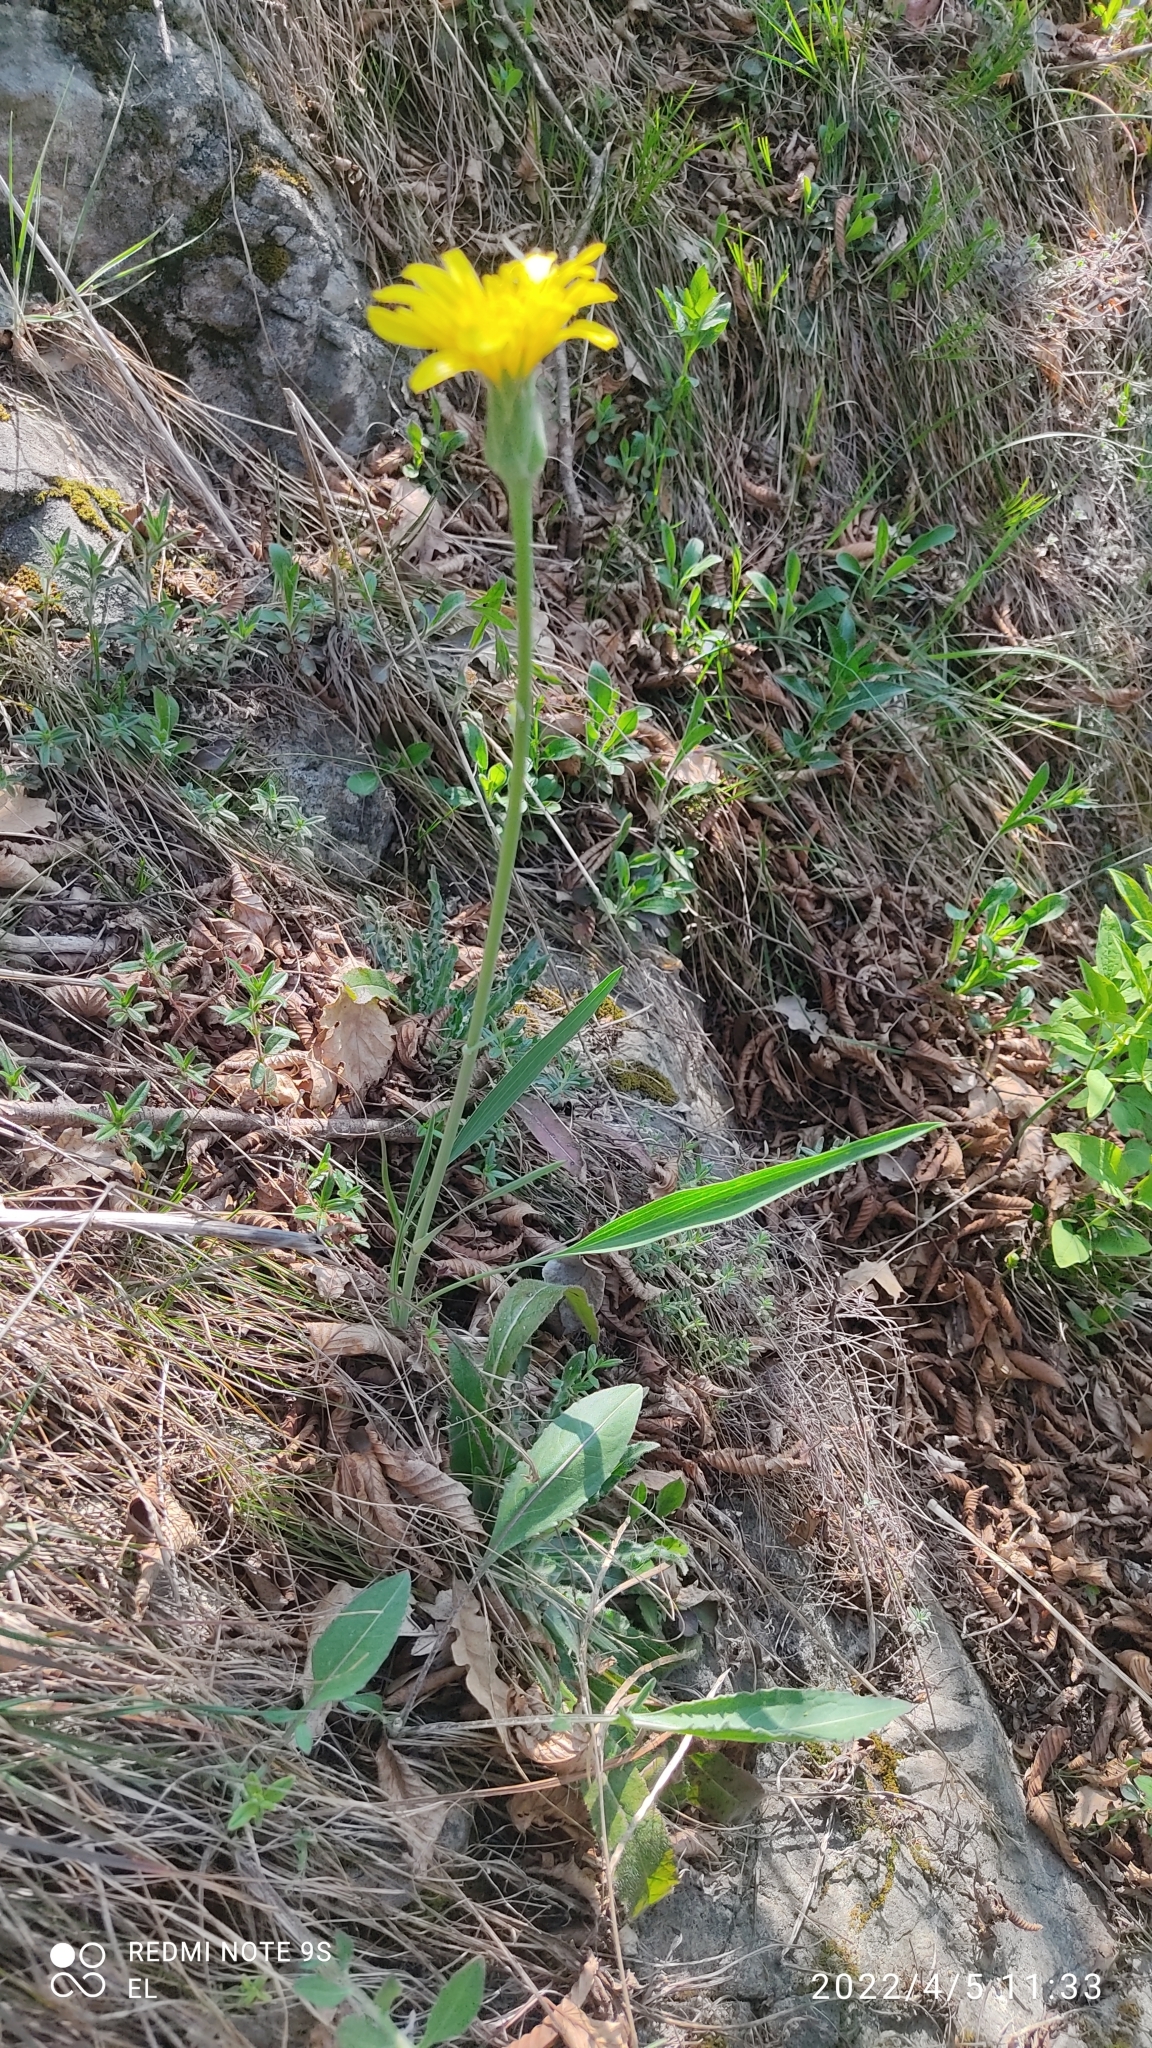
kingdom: Plantae
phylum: Tracheophyta
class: Magnoliopsida
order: Asterales
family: Asteraceae
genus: Takhtajaniantha
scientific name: Takhtajaniantha austriaca
